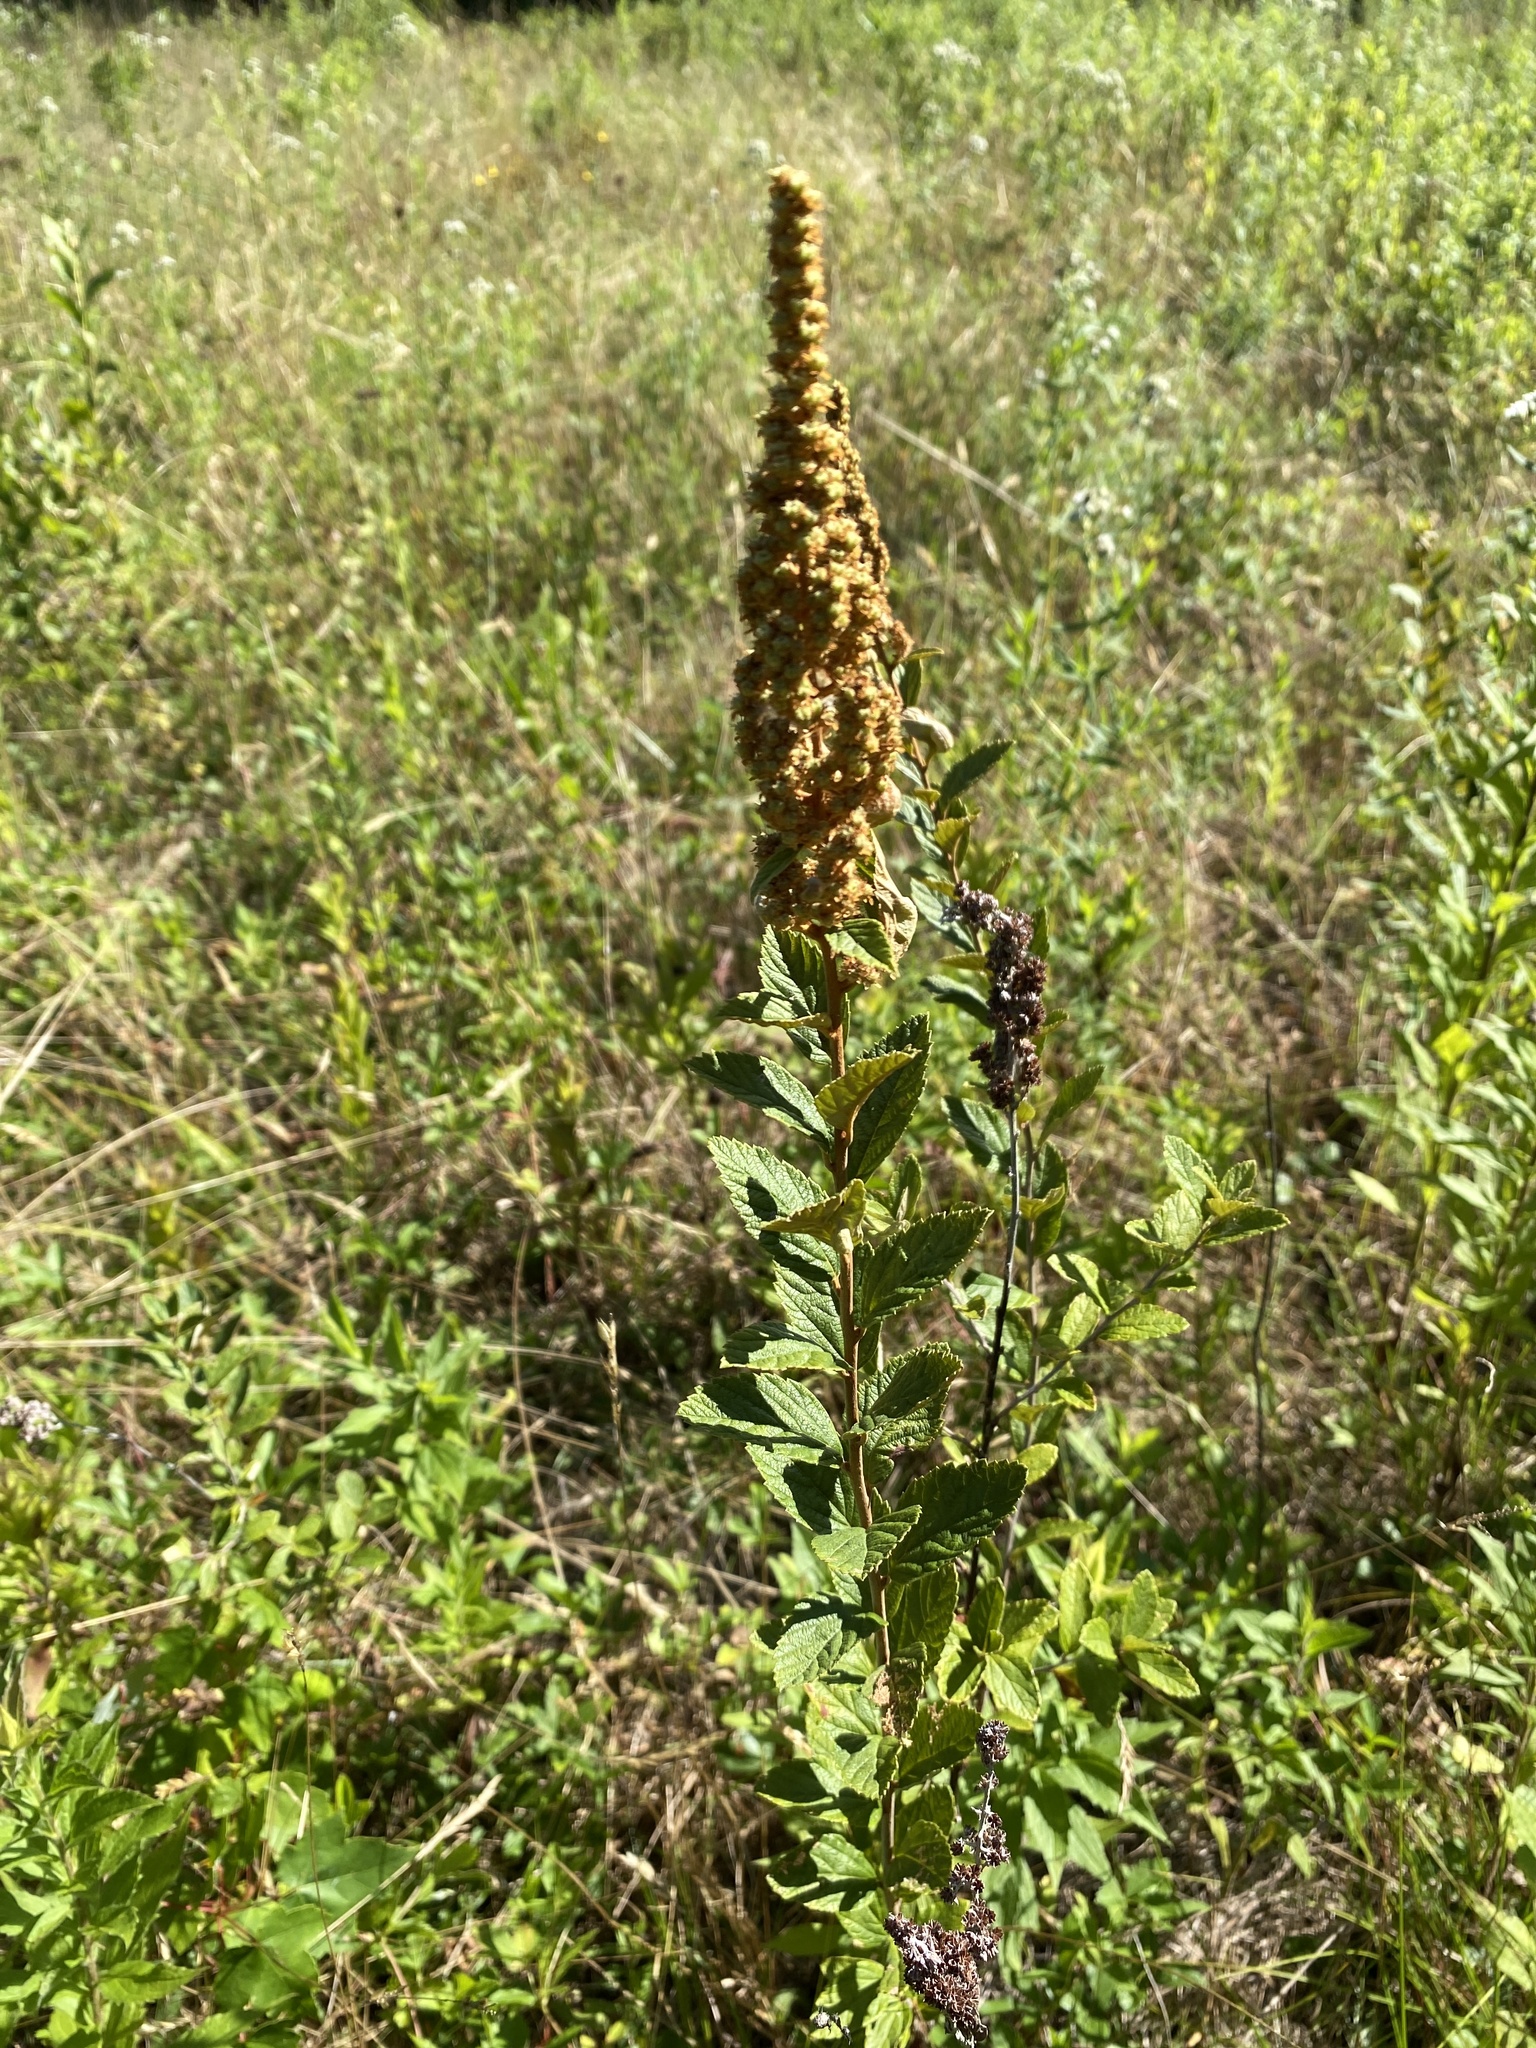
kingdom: Plantae
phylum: Tracheophyta
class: Magnoliopsida
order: Rosales
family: Rosaceae
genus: Spiraea
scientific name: Spiraea tomentosa
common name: Hardhack
